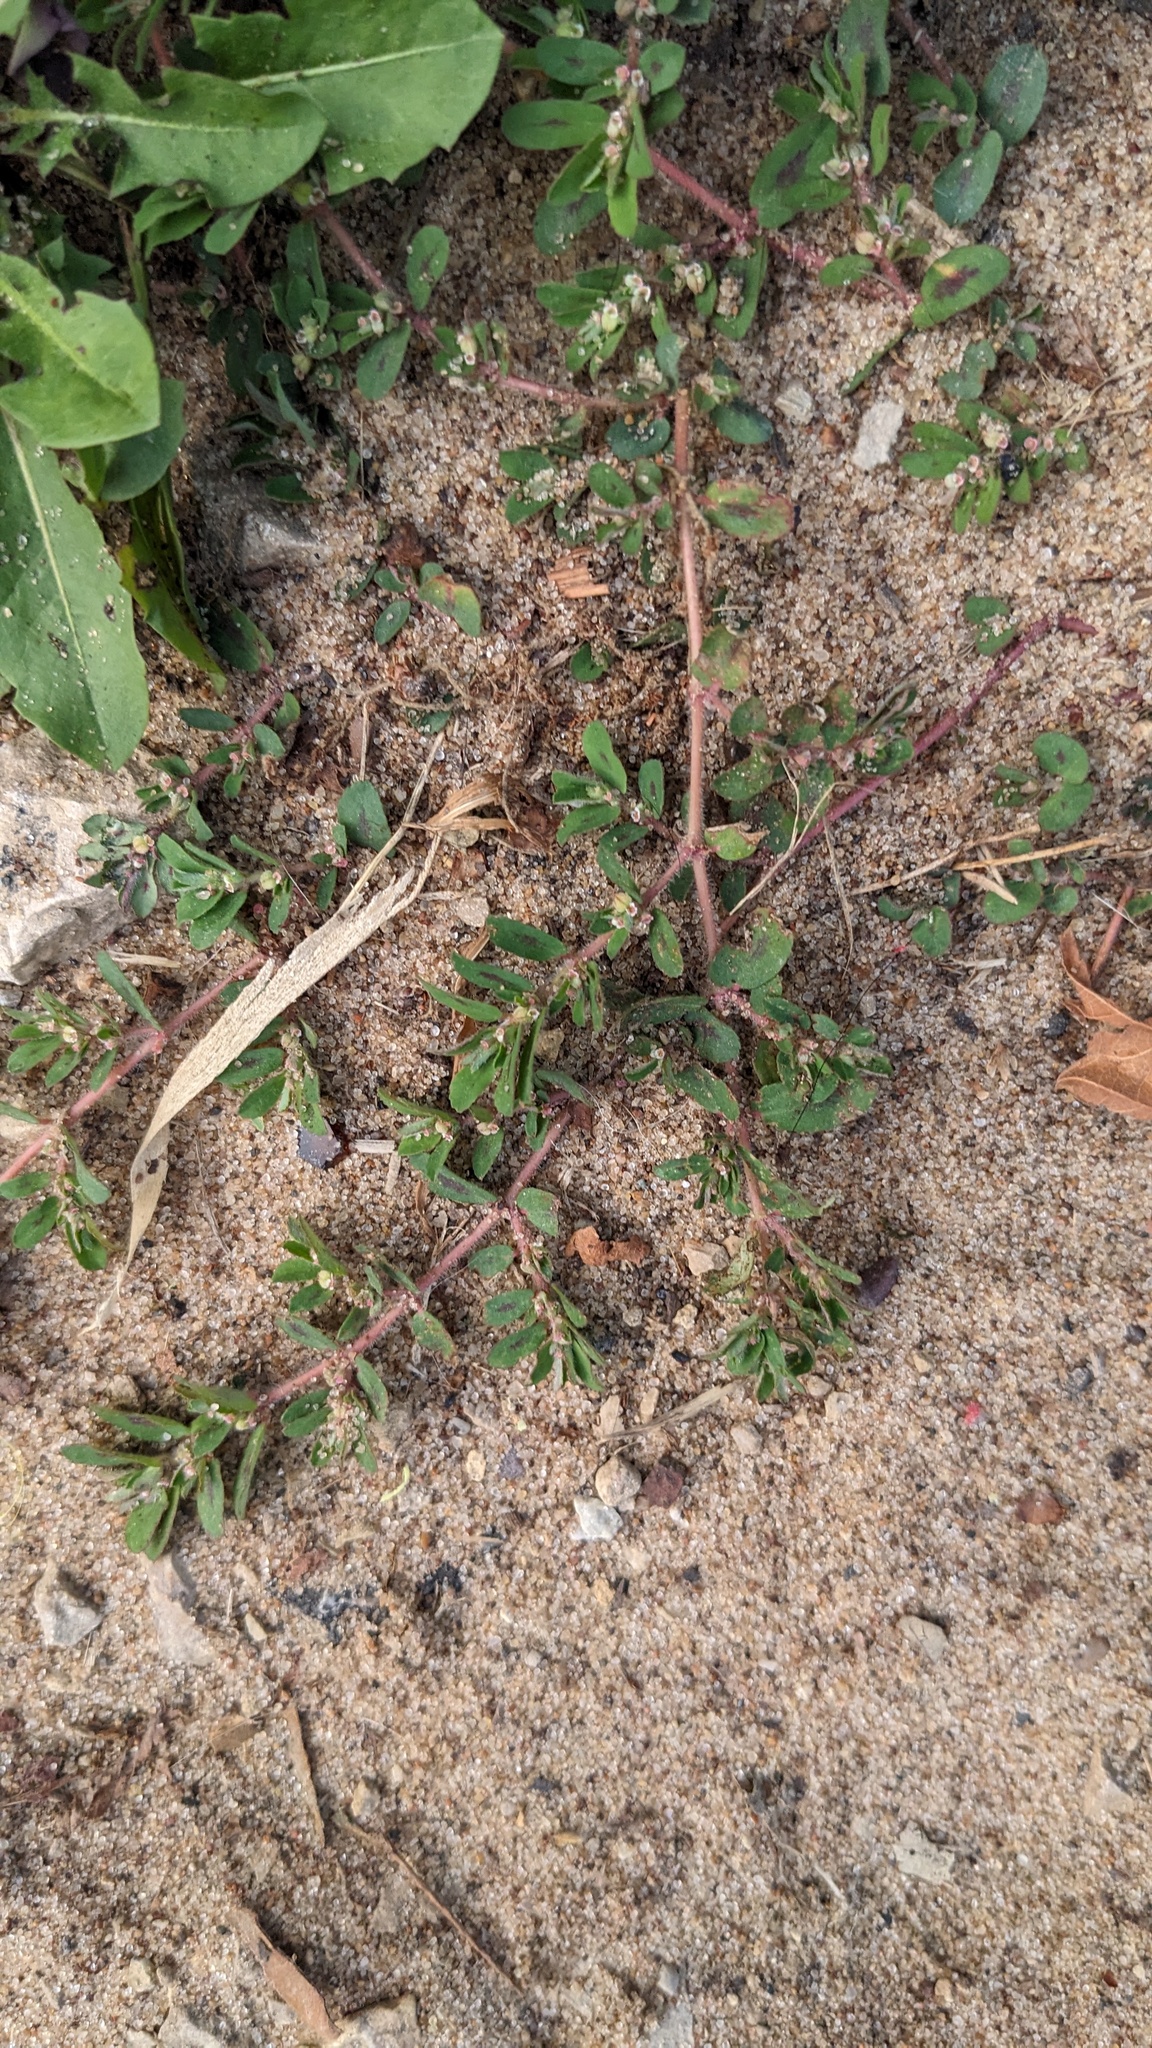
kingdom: Plantae
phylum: Tracheophyta
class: Magnoliopsida
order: Malpighiales
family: Euphorbiaceae
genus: Euphorbia
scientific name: Euphorbia maculata
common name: Spotted spurge
